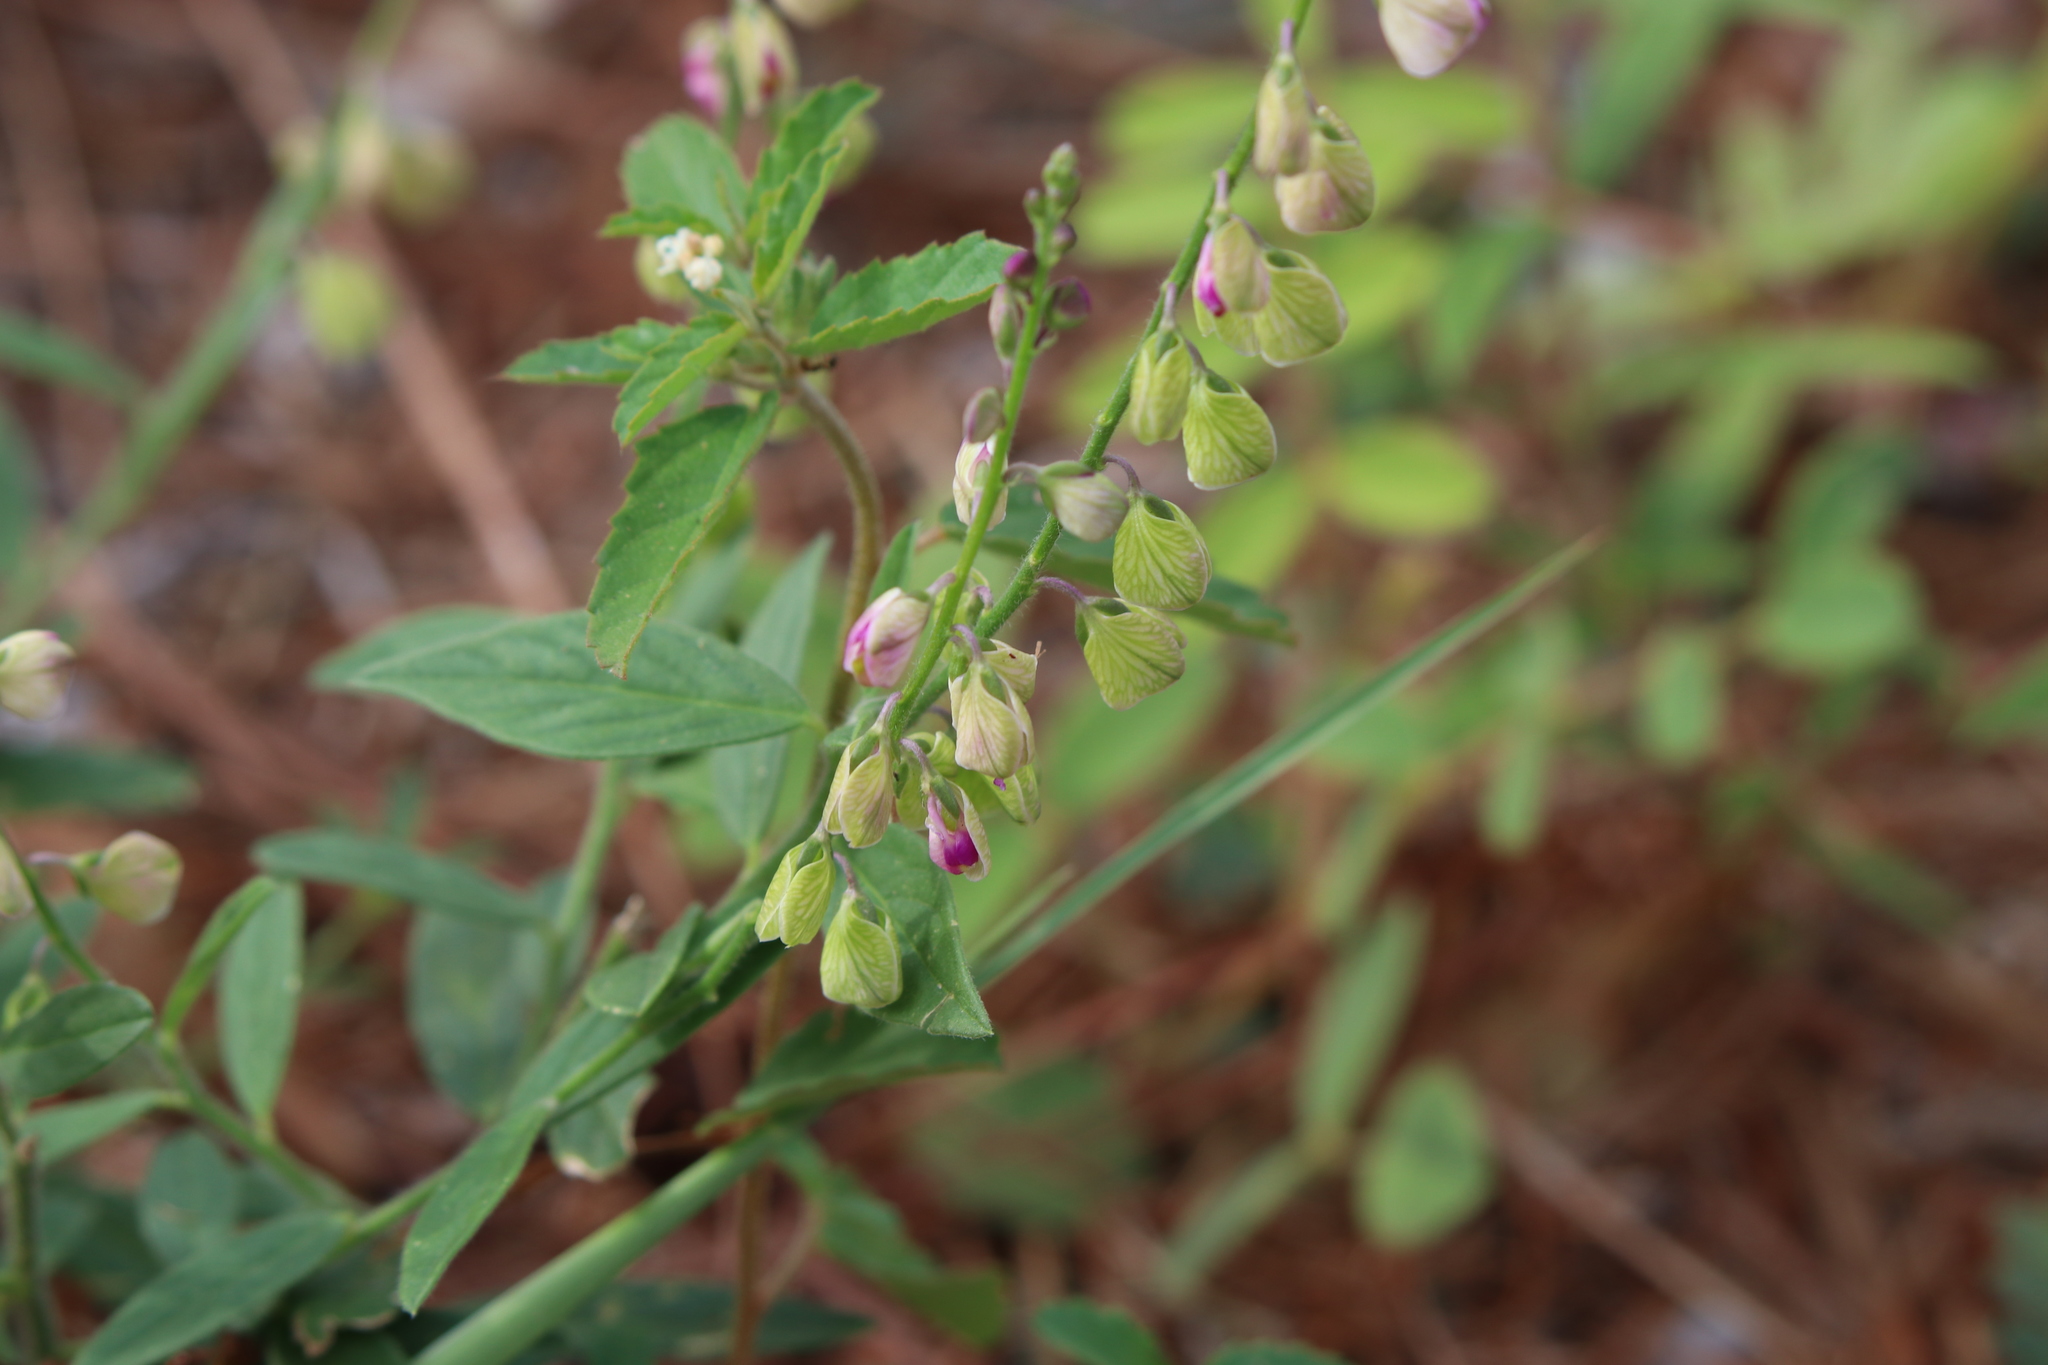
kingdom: Plantae
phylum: Tracheophyta
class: Magnoliopsida
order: Fabales
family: Polygalaceae
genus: Asemeia
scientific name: Asemeia grandiflora
